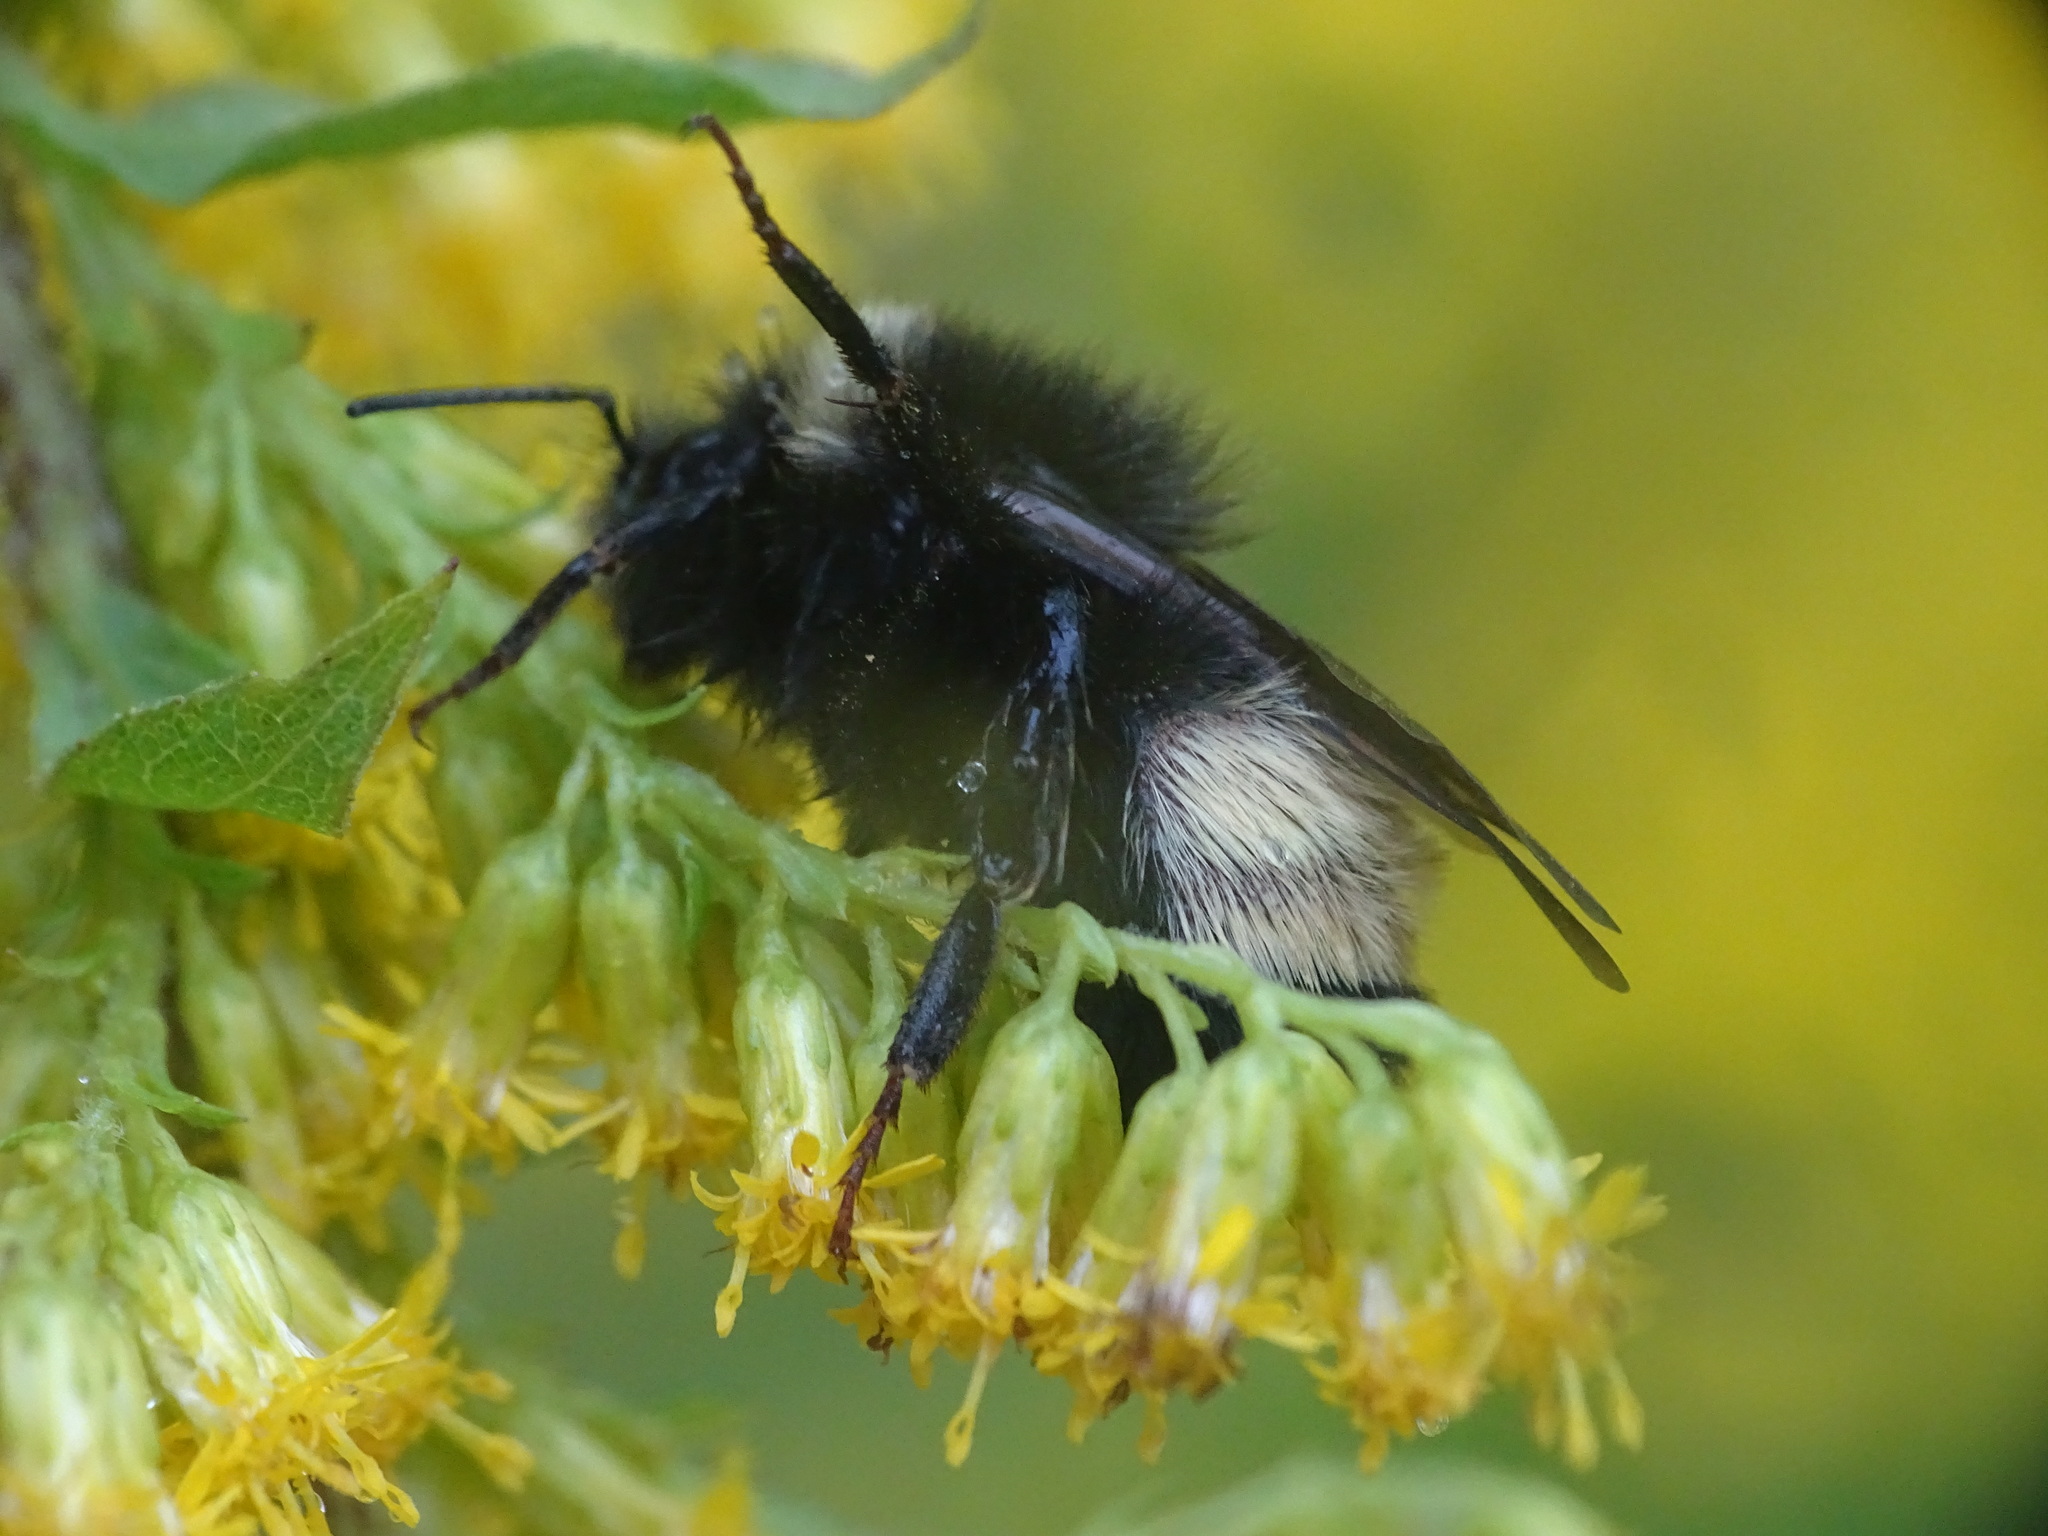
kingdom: Animalia
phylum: Arthropoda
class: Insecta
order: Hymenoptera
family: Apidae
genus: Bombus
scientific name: Bombus terricola
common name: Yellow-banded bumble bee
